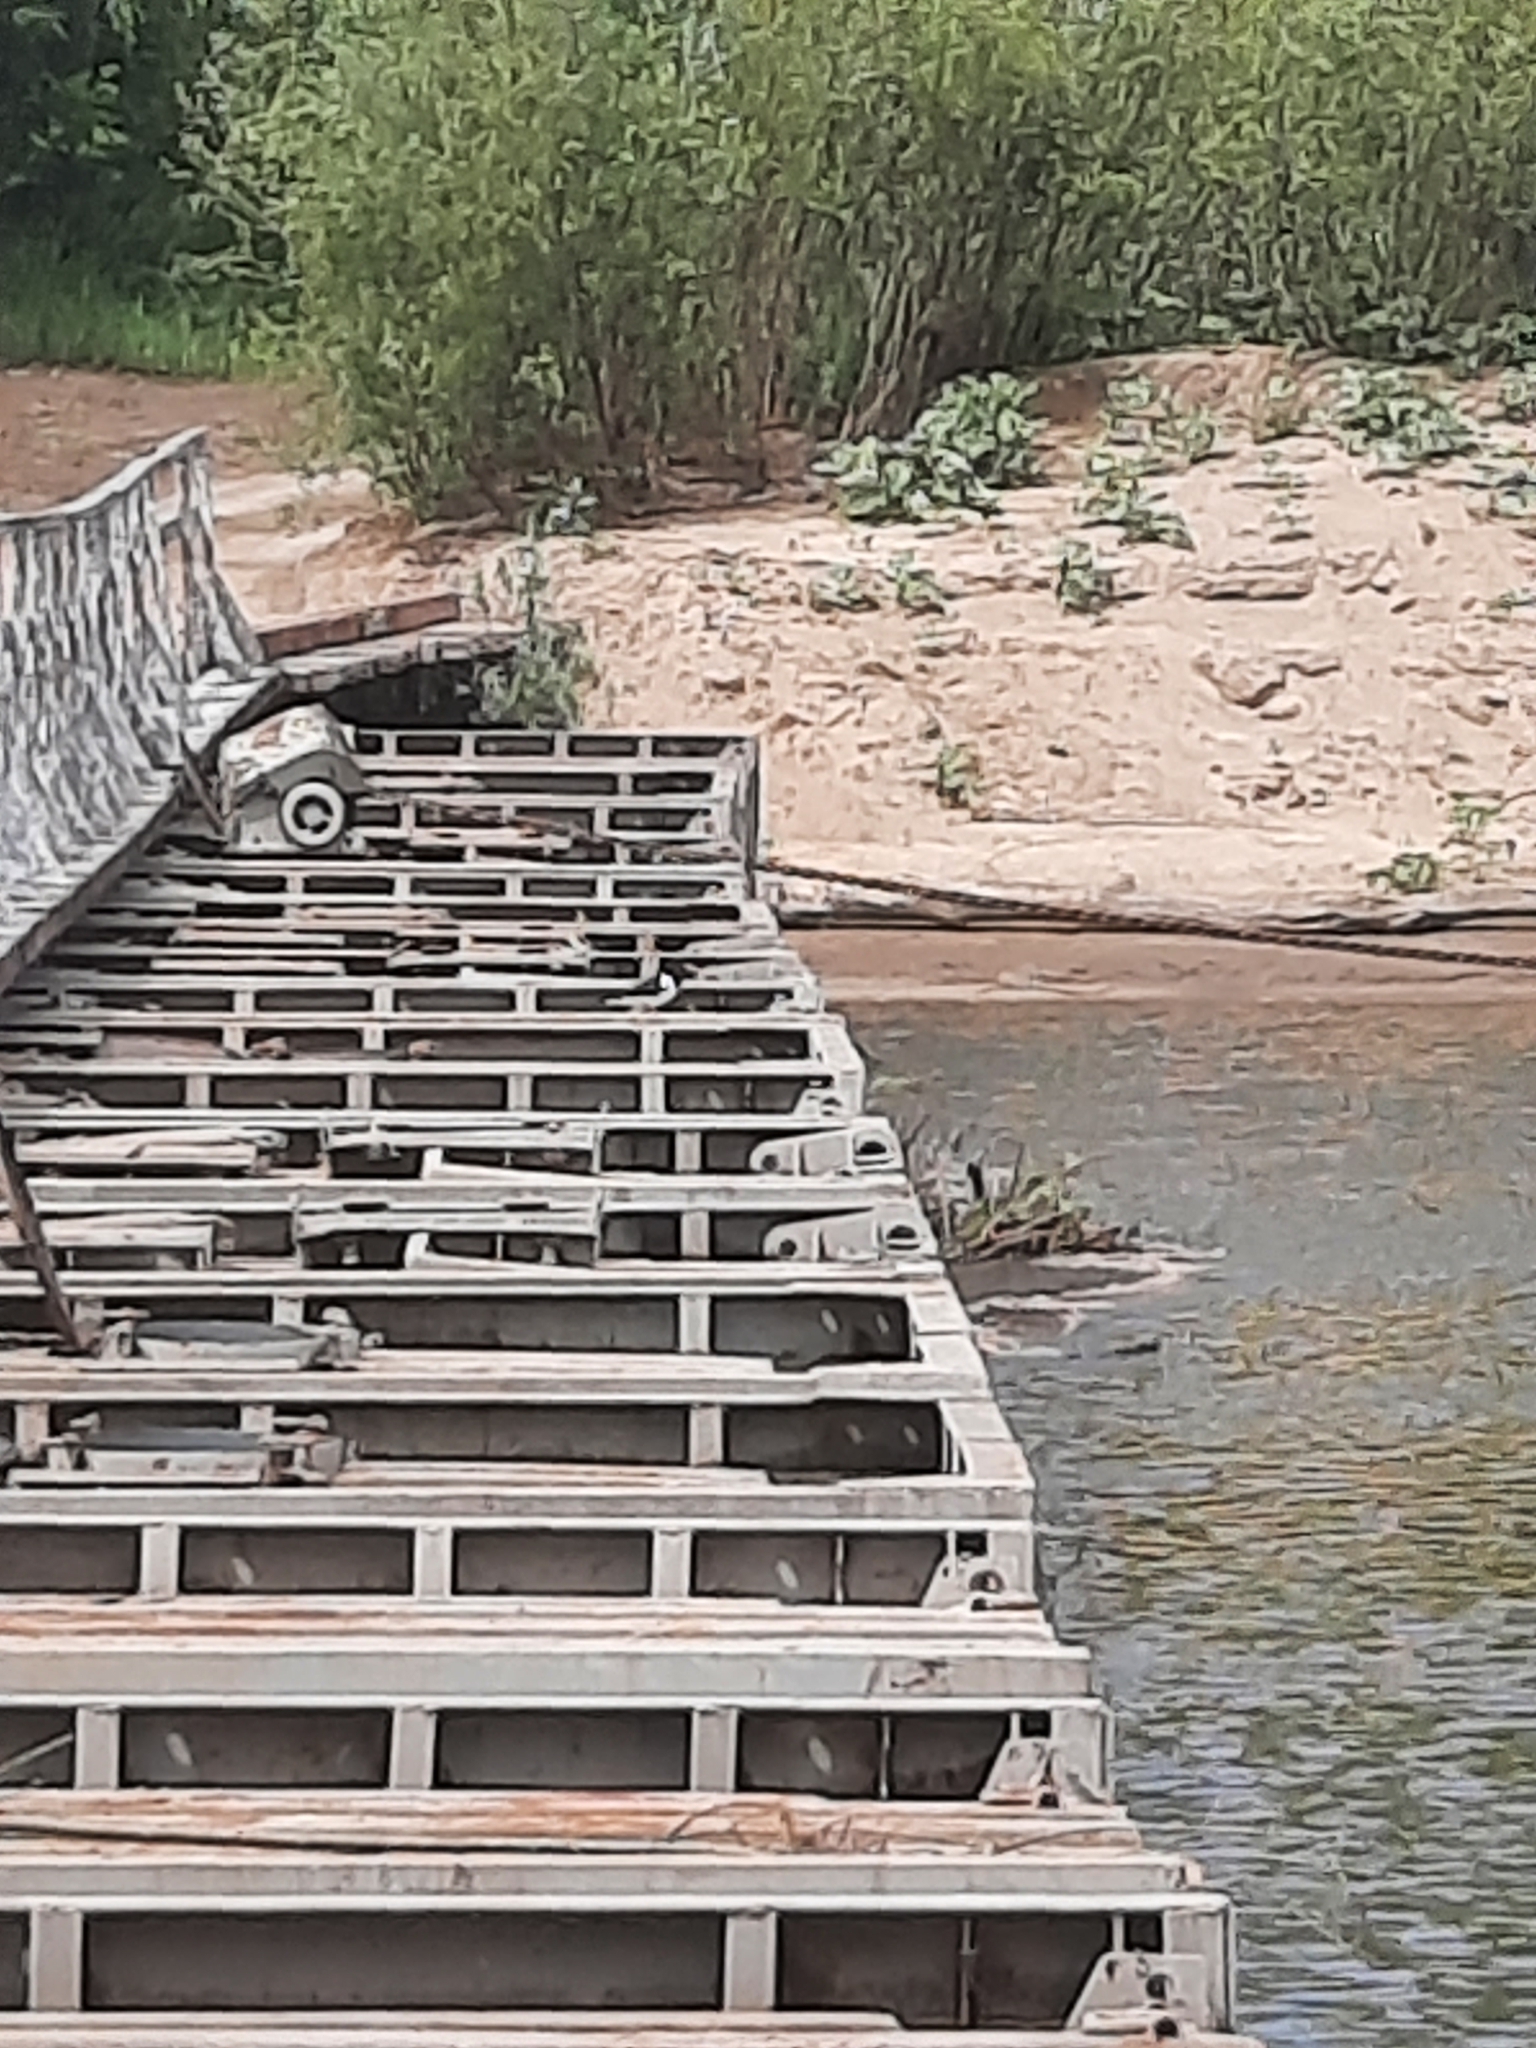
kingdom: Animalia
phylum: Chordata
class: Aves
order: Charadriiformes
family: Haematopodidae
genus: Haematopus
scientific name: Haematopus ostralegus
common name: Eurasian oystercatcher
